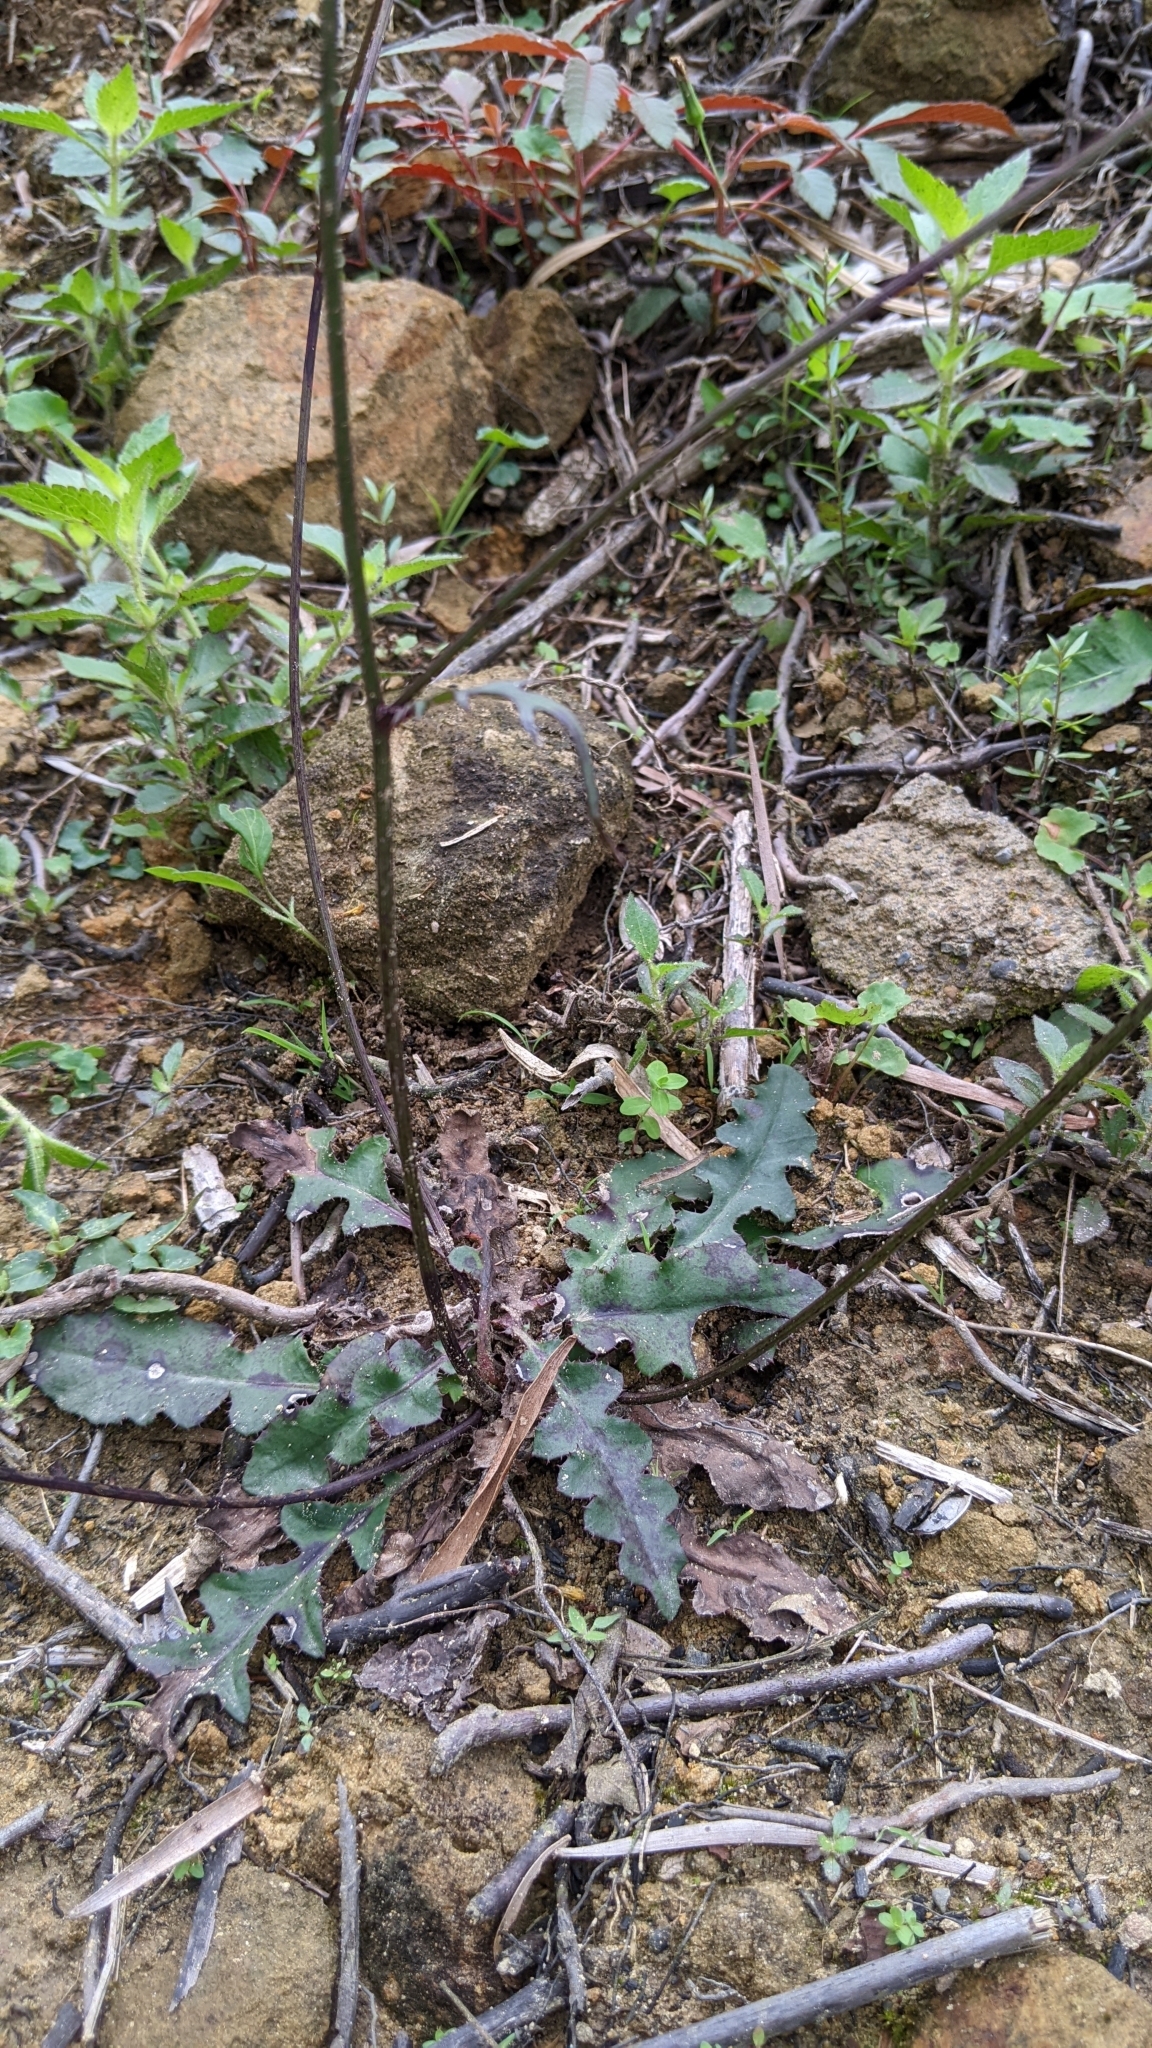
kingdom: Plantae
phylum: Tracheophyta
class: Magnoliopsida
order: Asterales
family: Asteraceae
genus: Ixeridium
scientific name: Ixeridium laevigatum
